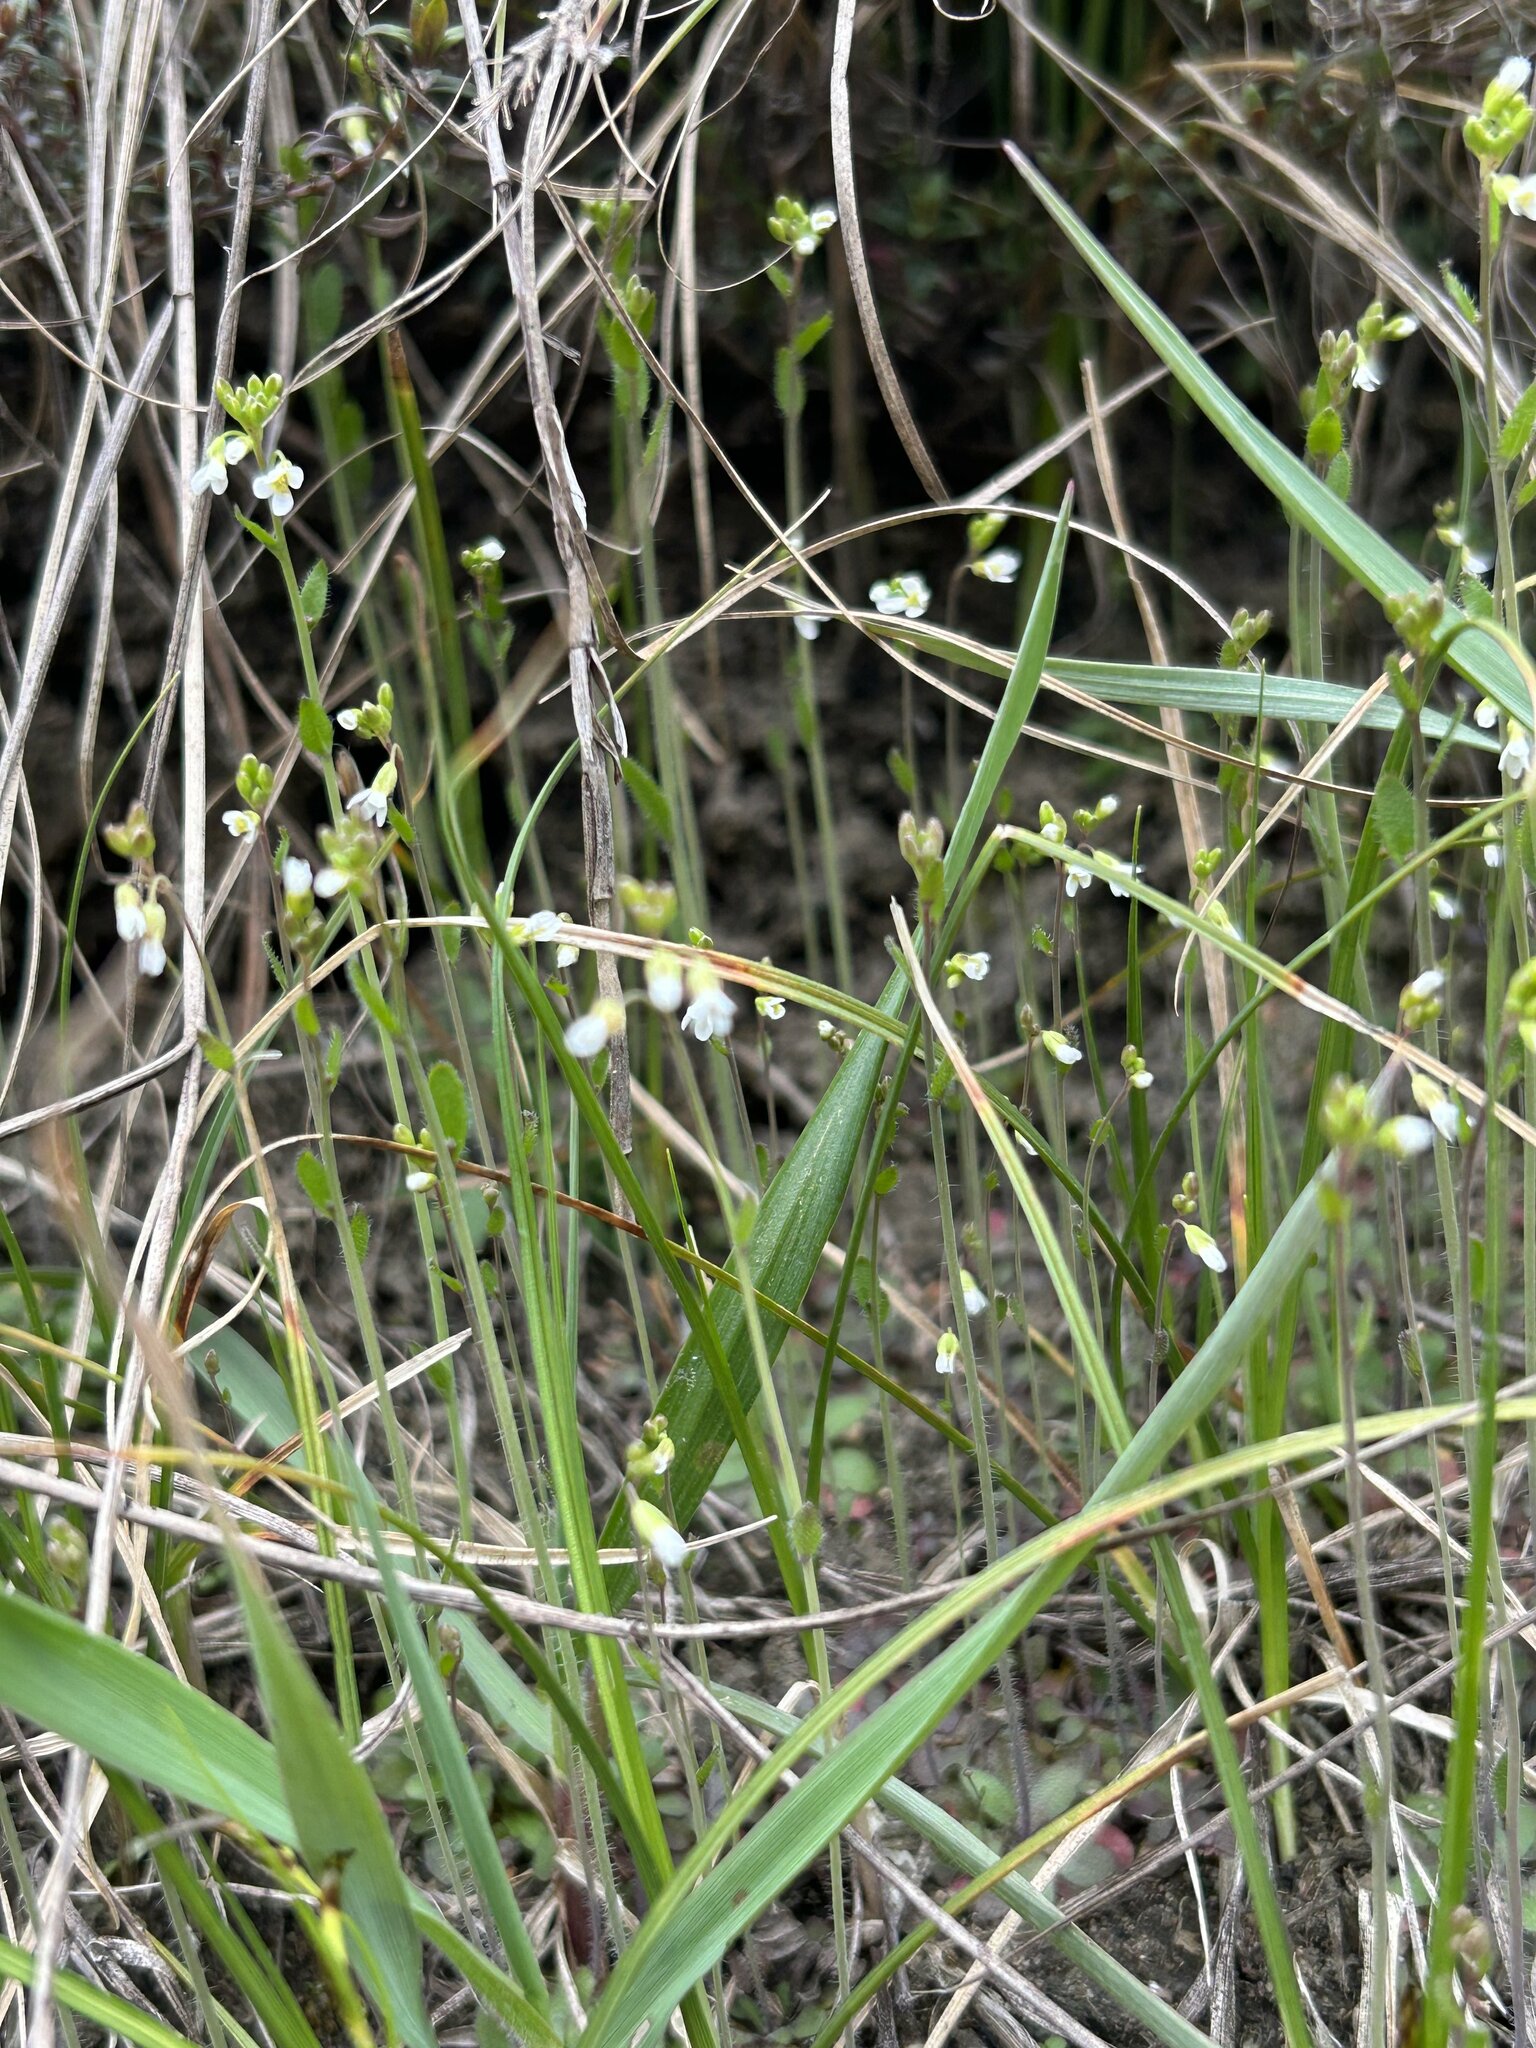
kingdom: Plantae
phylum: Tracheophyta
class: Magnoliopsida
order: Brassicales
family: Brassicaceae
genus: Arabidopsis
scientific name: Arabidopsis thaliana
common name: Thale cress
